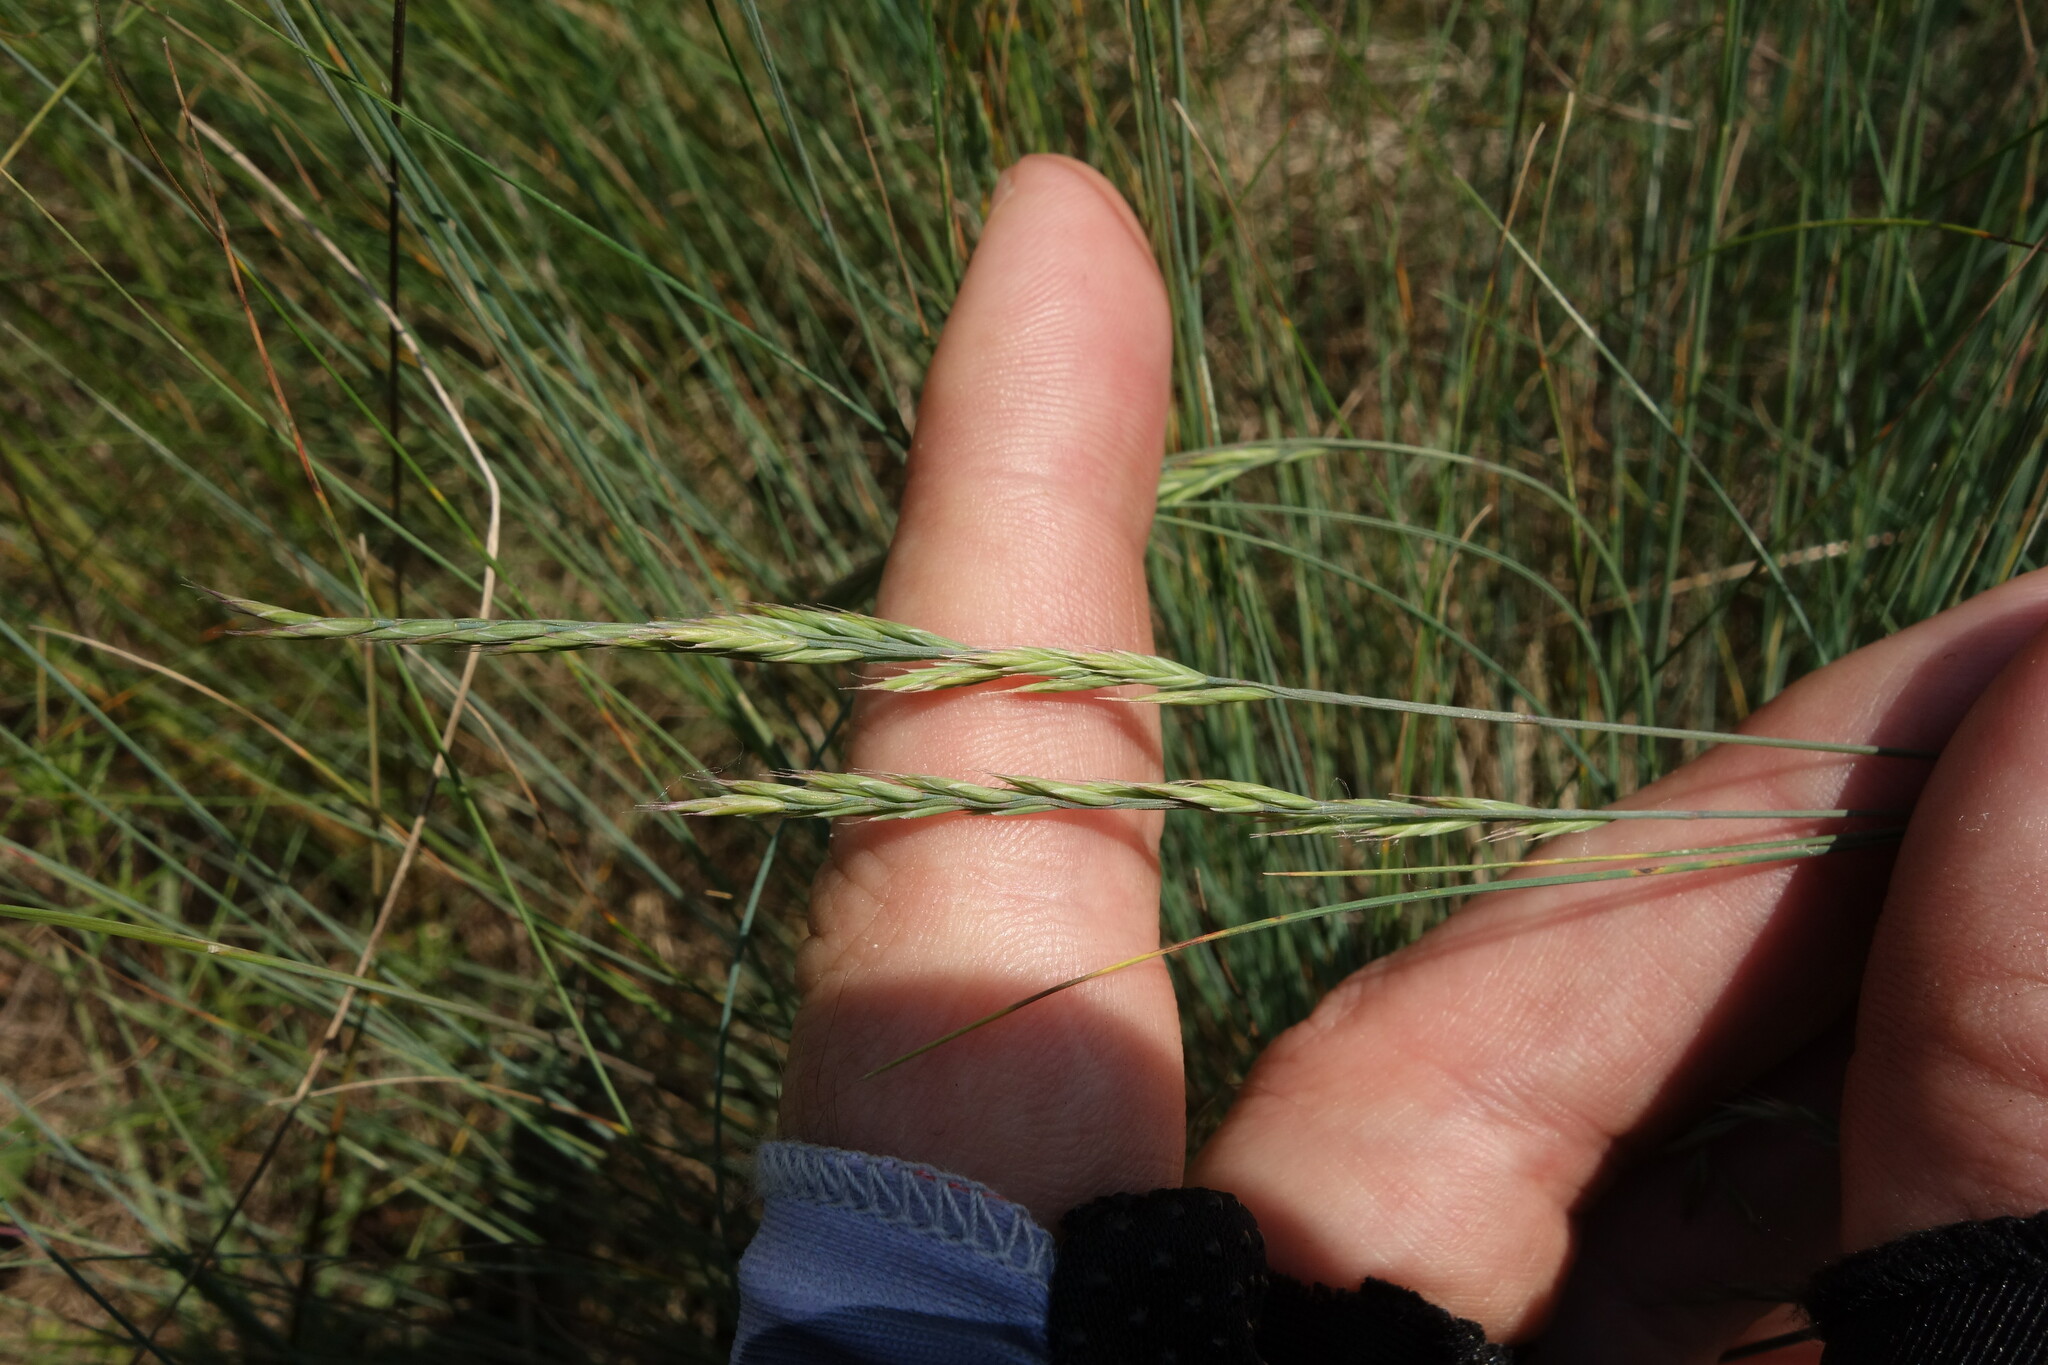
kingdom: Plantae
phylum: Tracheophyta
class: Liliopsida
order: Poales
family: Poaceae
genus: Festuca
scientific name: Festuca valesiaca
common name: Volga fescue
